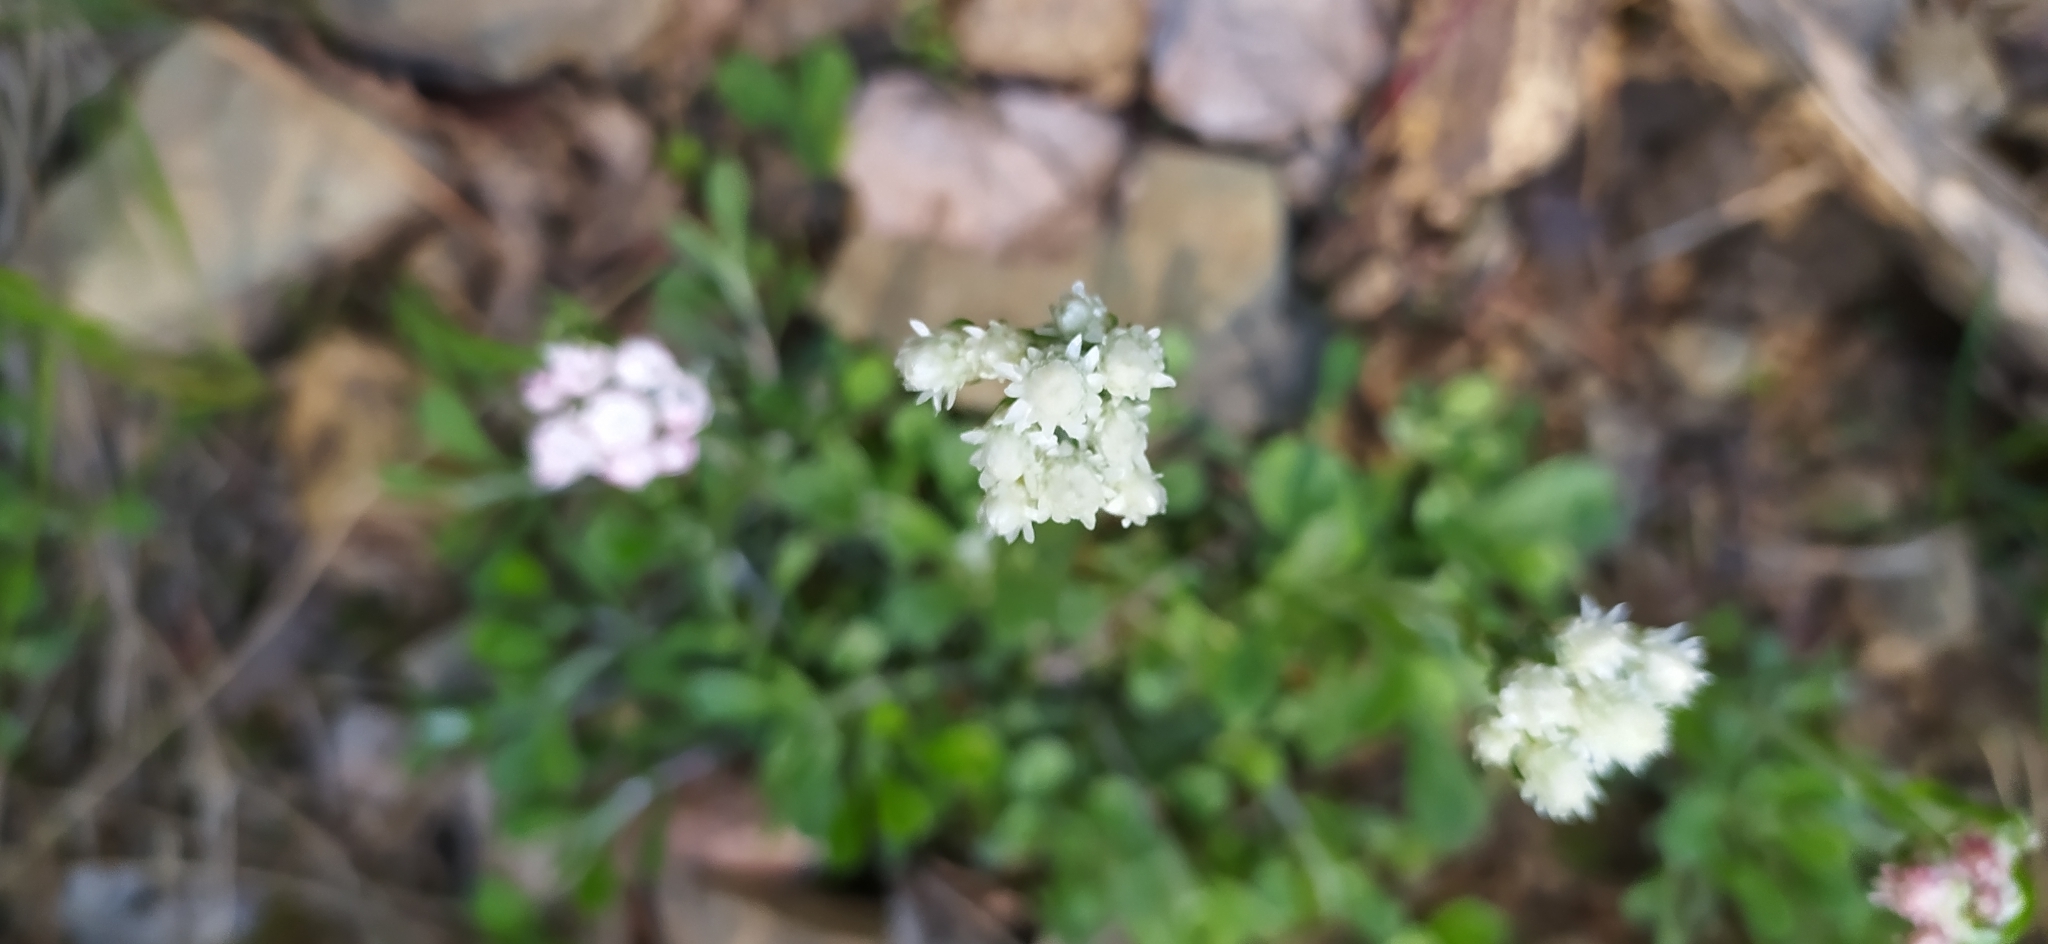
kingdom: Plantae
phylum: Tracheophyta
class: Magnoliopsida
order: Asterales
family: Asteraceae
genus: Antennaria
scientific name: Antennaria dioica
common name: Mountain everlasting
